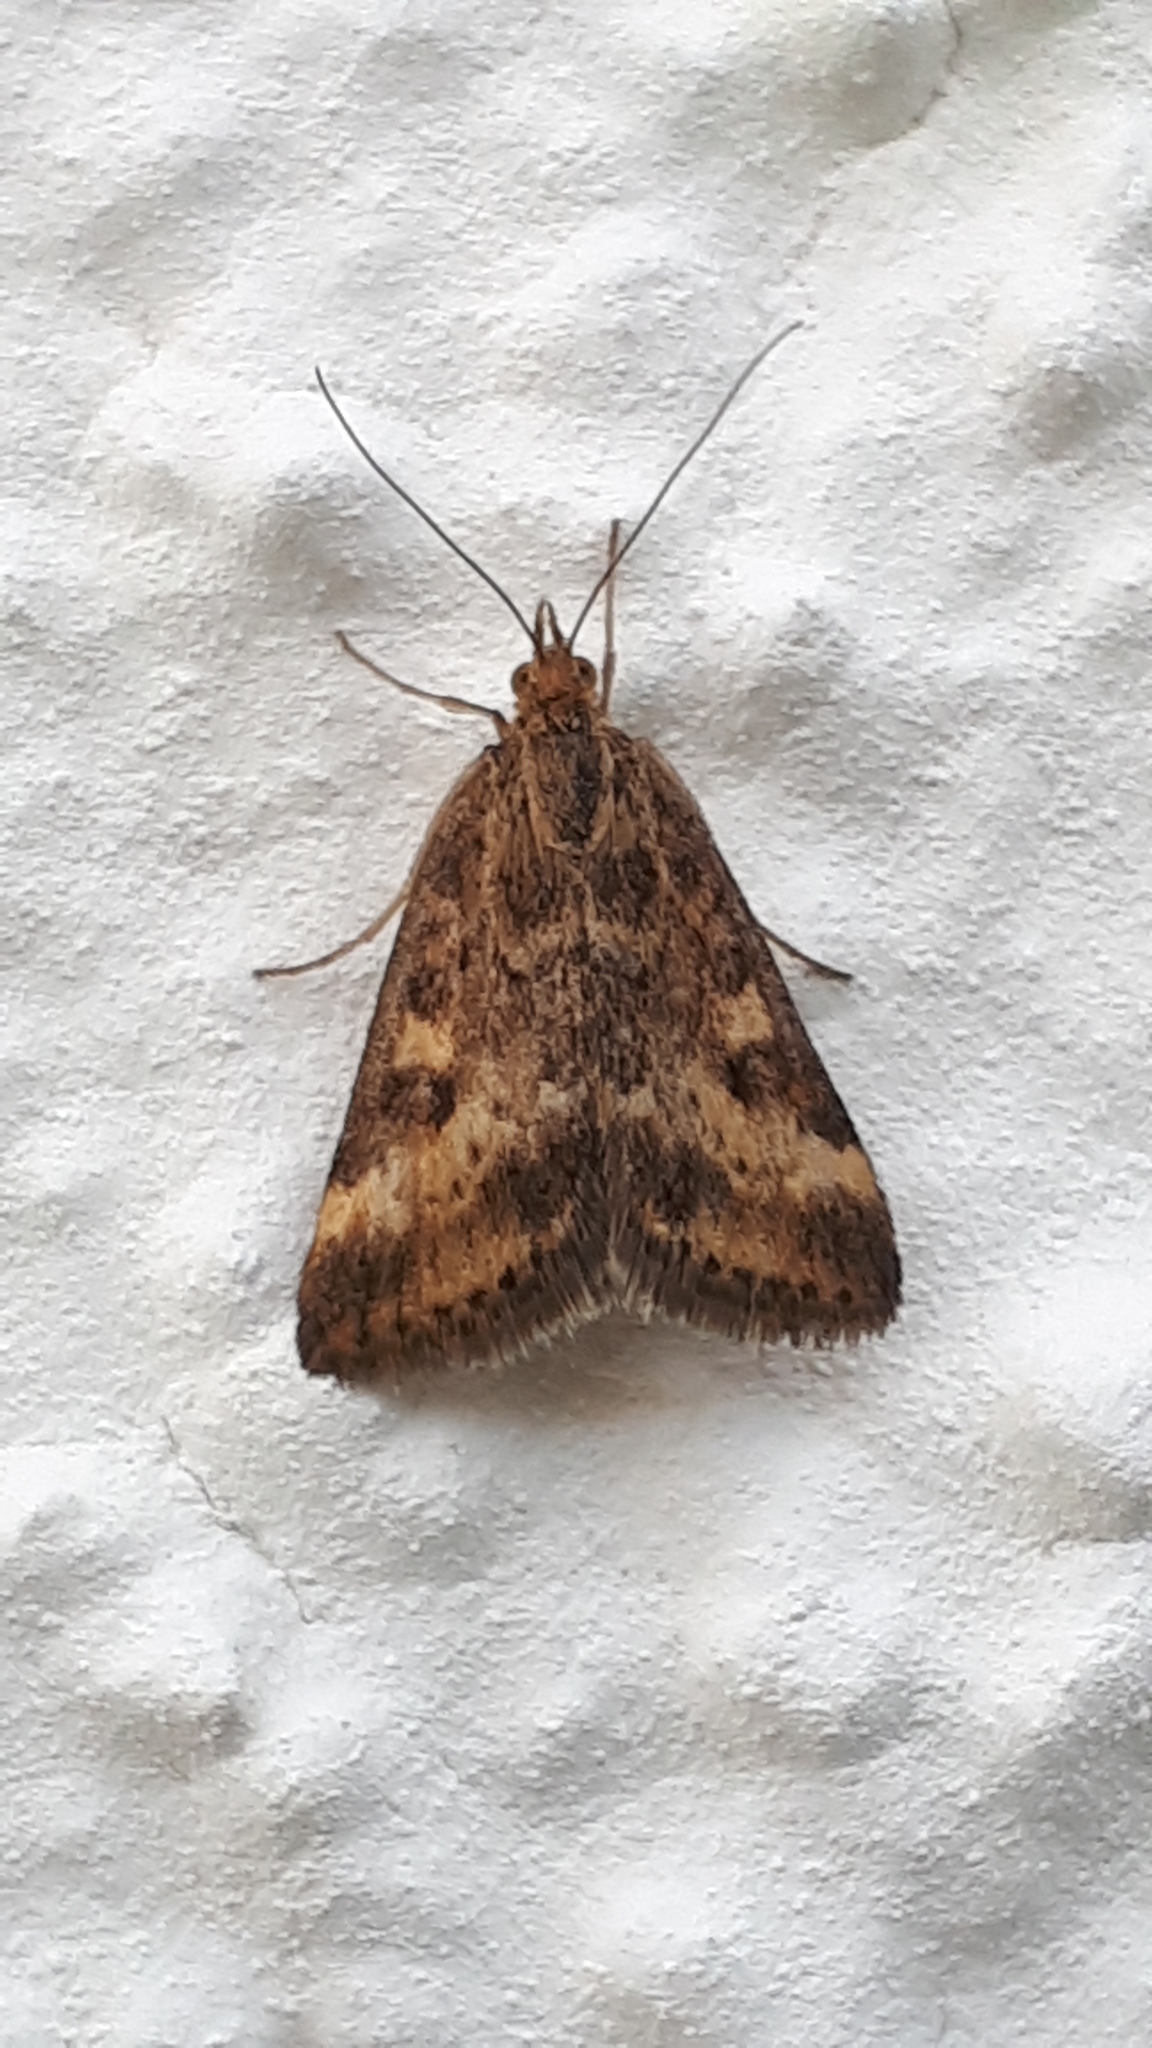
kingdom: Animalia
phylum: Arthropoda
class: Insecta
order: Lepidoptera
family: Crambidae
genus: Pyrausta
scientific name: Pyrausta despicata
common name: Straw-barred pearl
